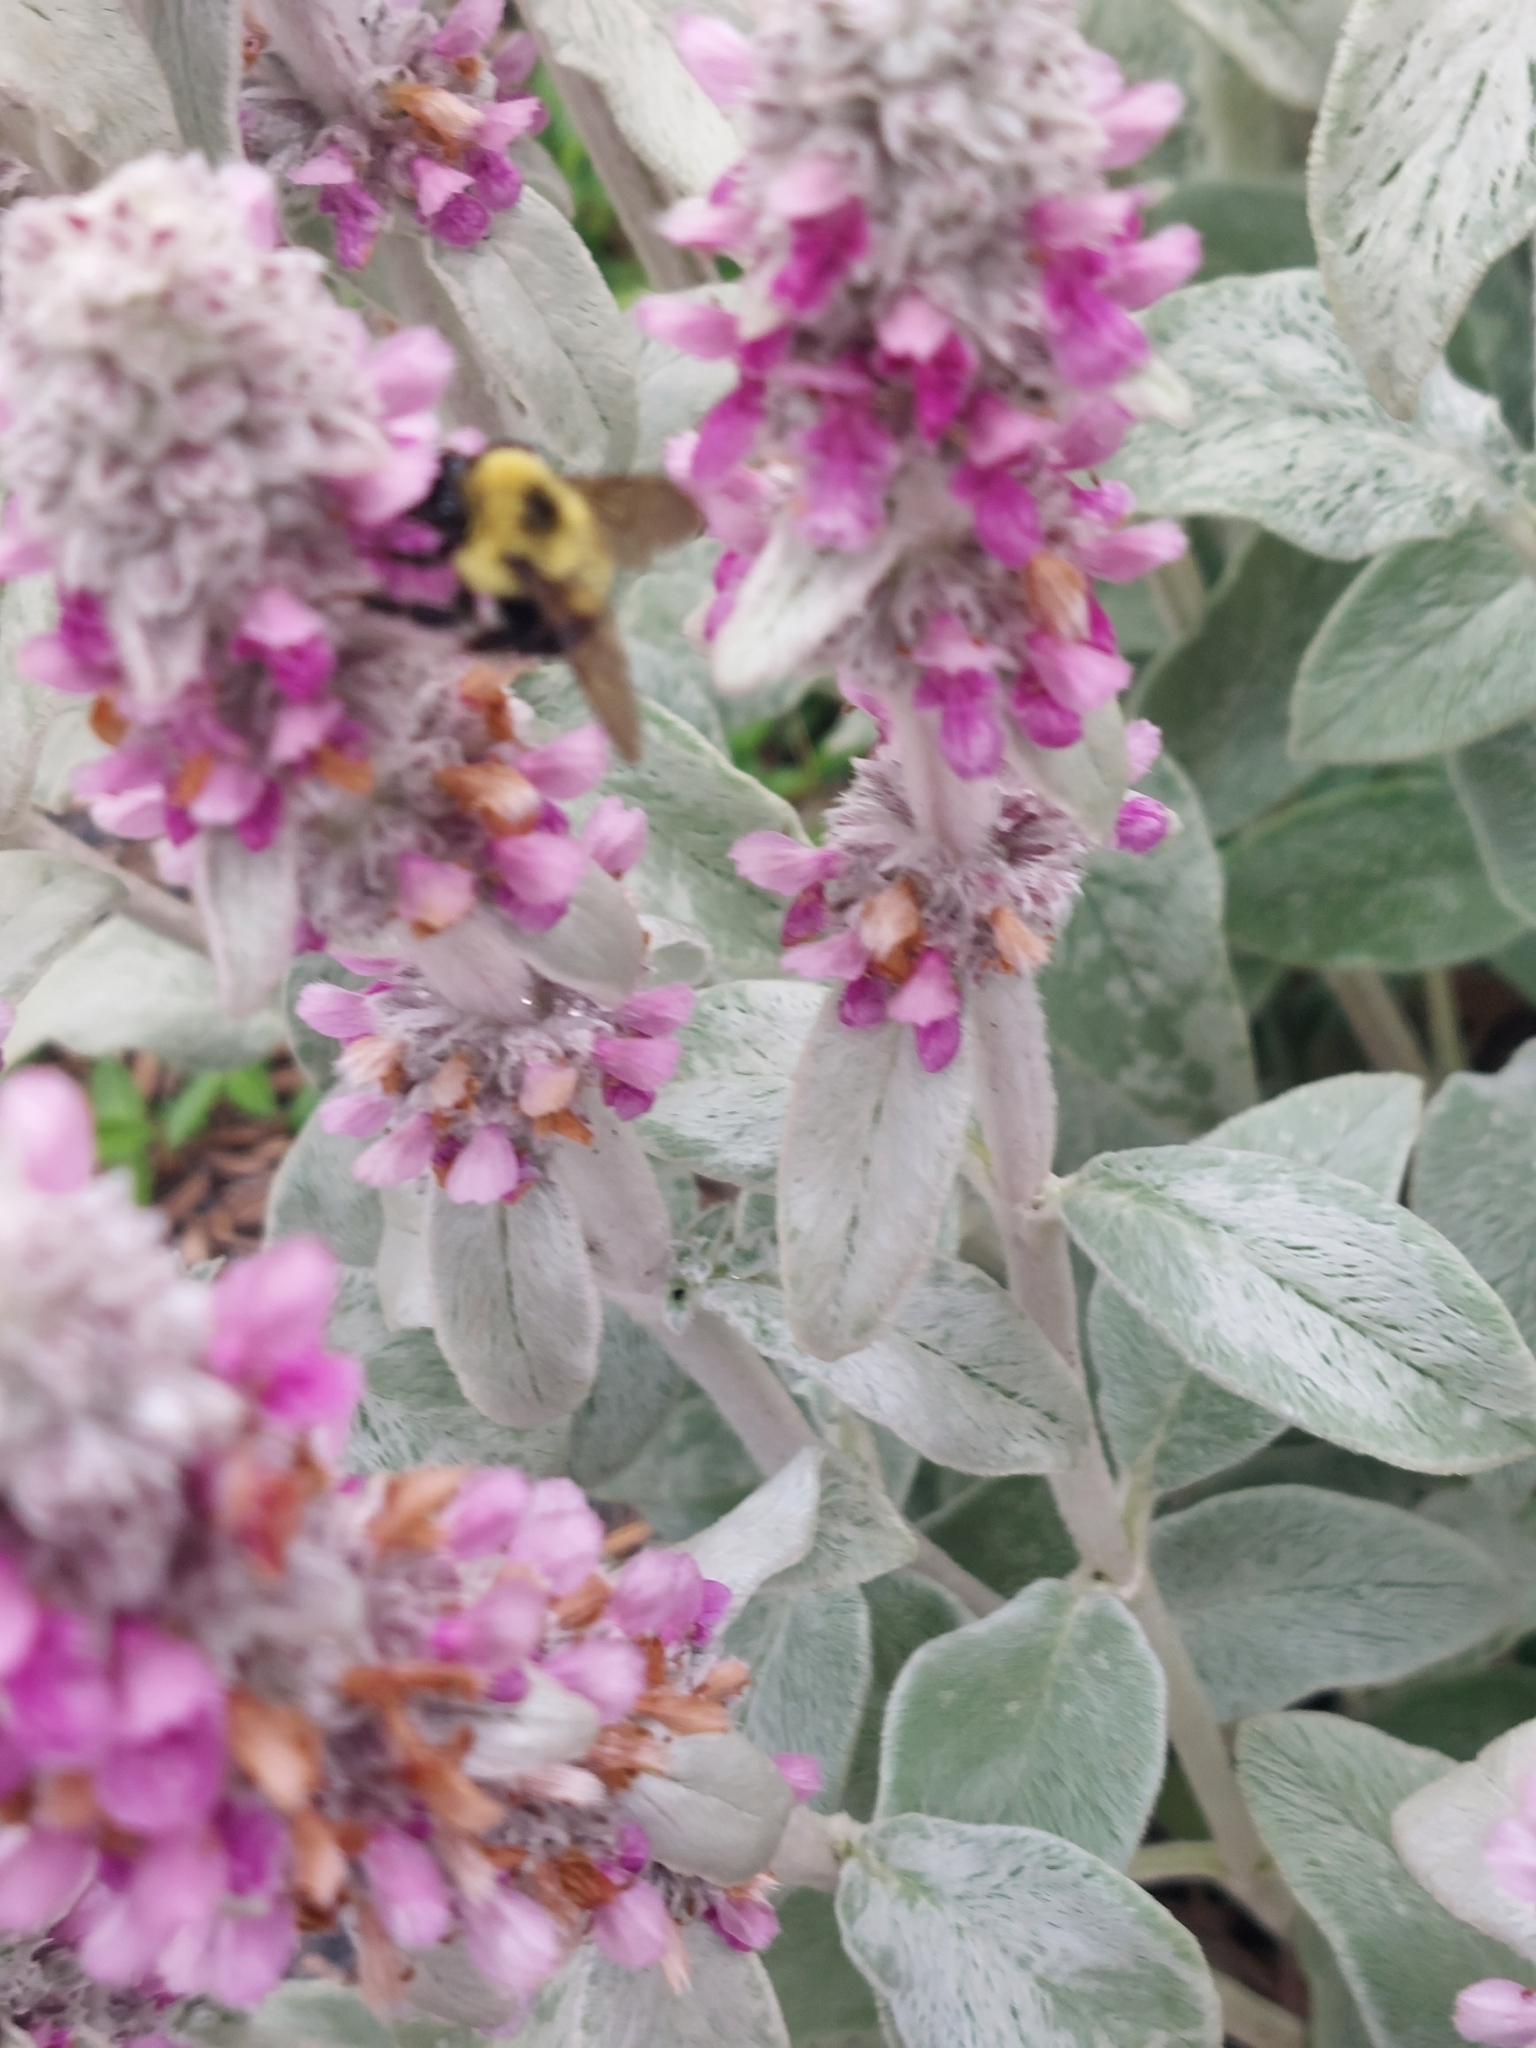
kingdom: Animalia
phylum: Arthropoda
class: Insecta
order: Hymenoptera
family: Apidae
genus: Bombus
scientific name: Bombus bimaculatus
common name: Two-spotted bumble bee
